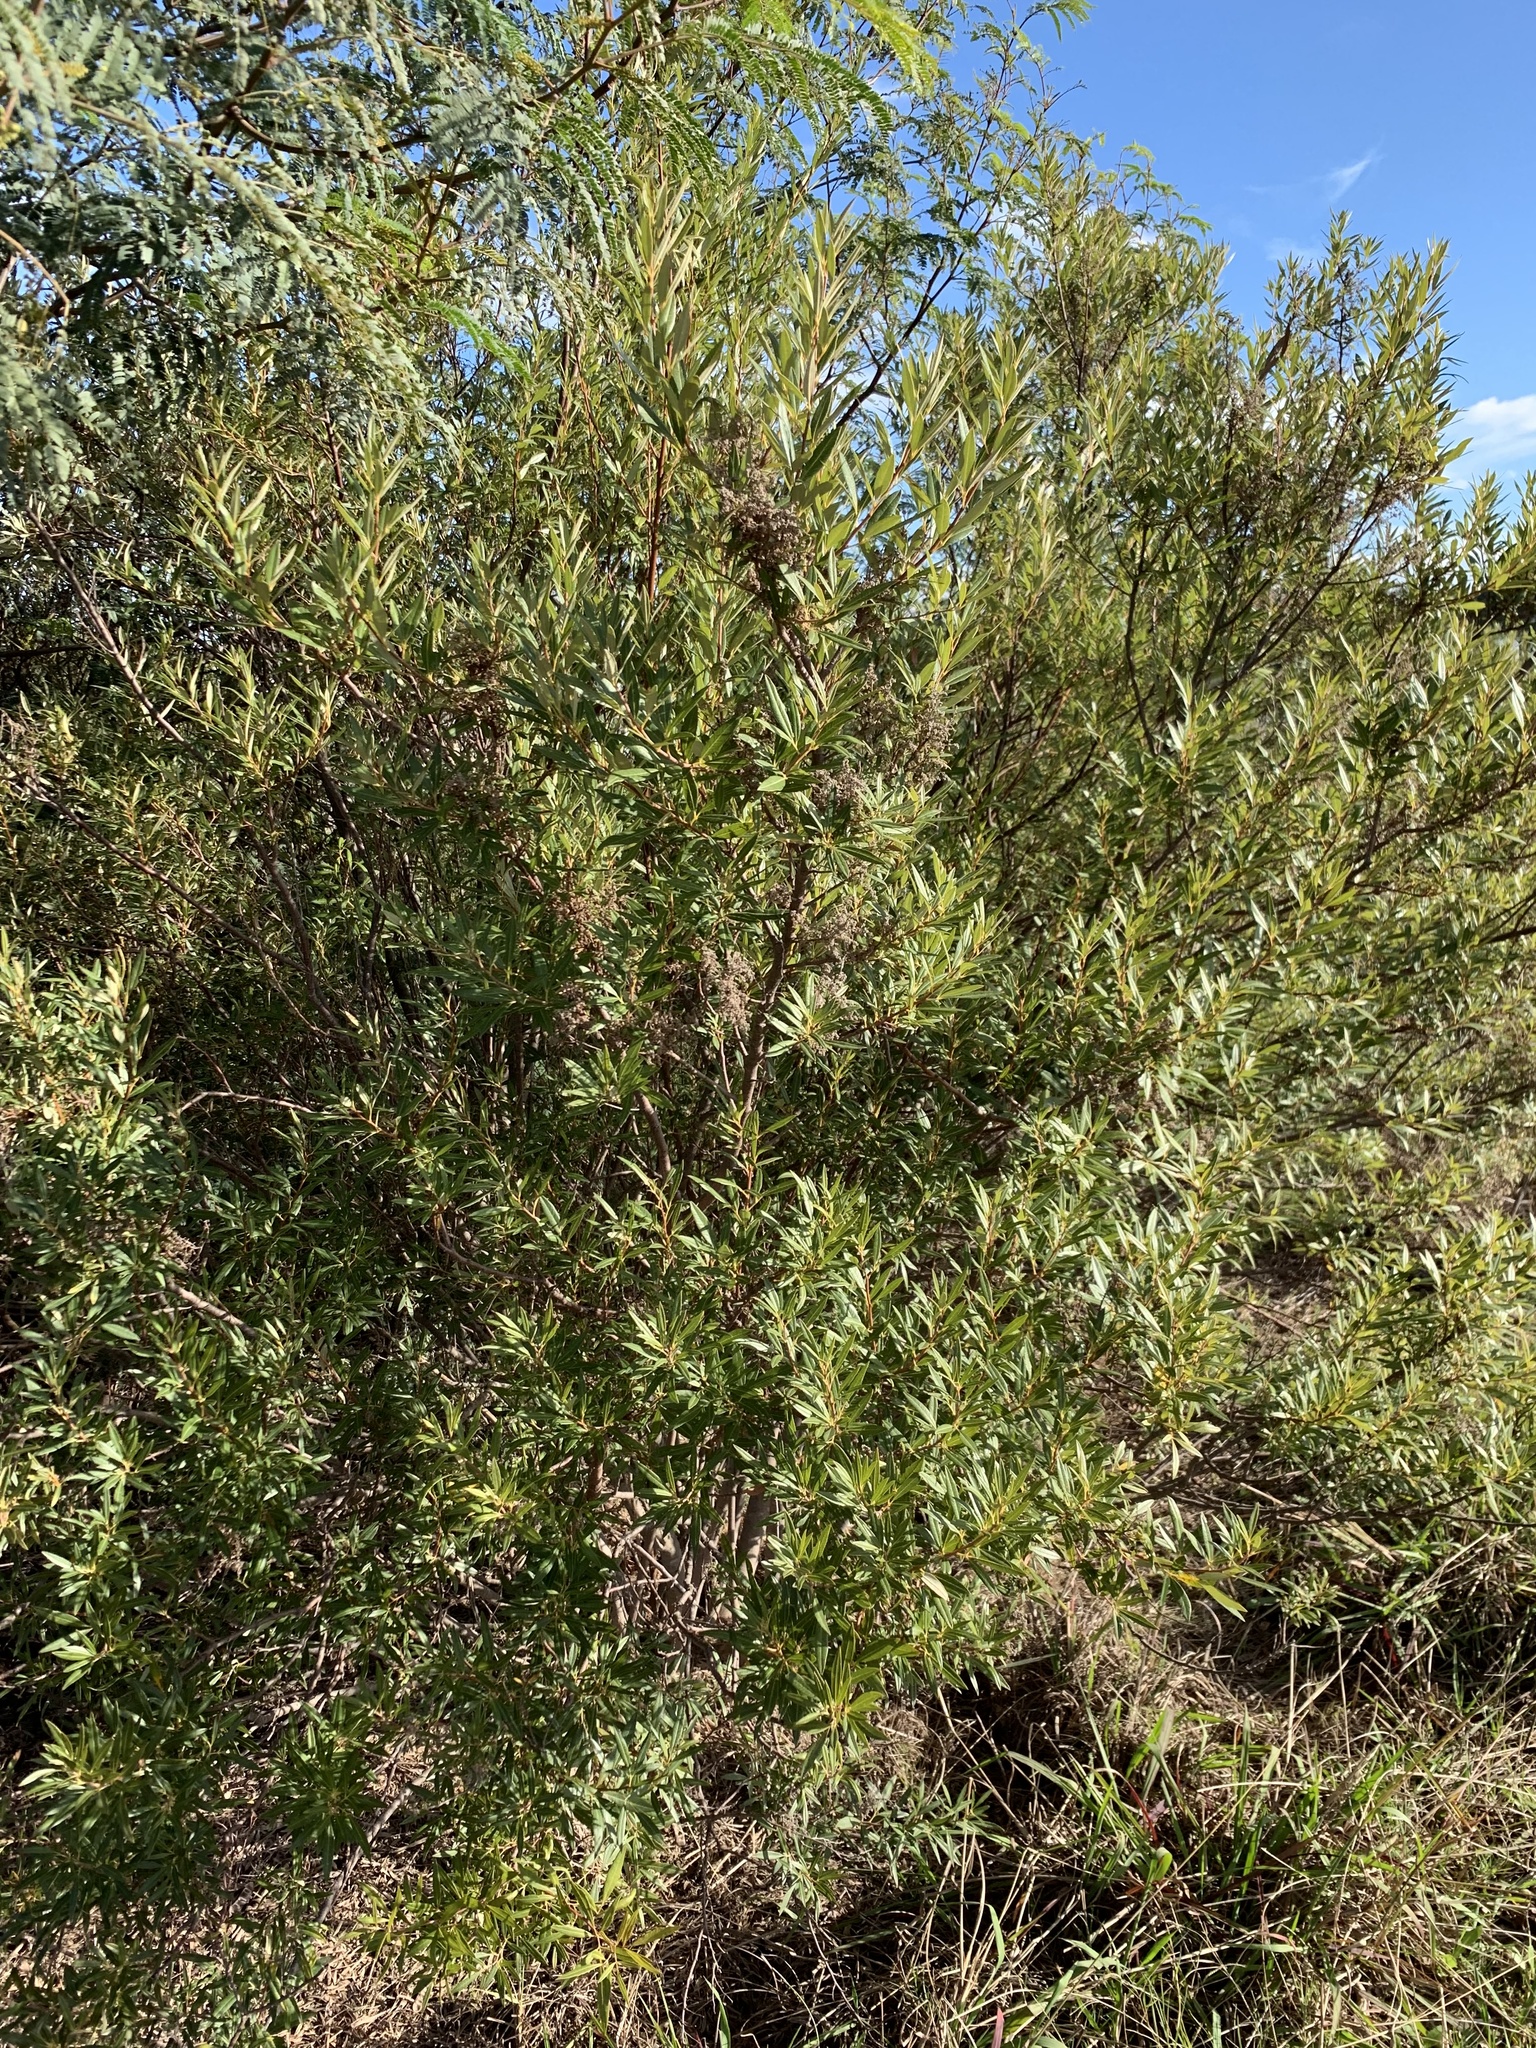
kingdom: Plantae
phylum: Tracheophyta
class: Magnoliopsida
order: Sapindales
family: Anacardiaceae
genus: Searsia
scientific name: Searsia angustifolia
